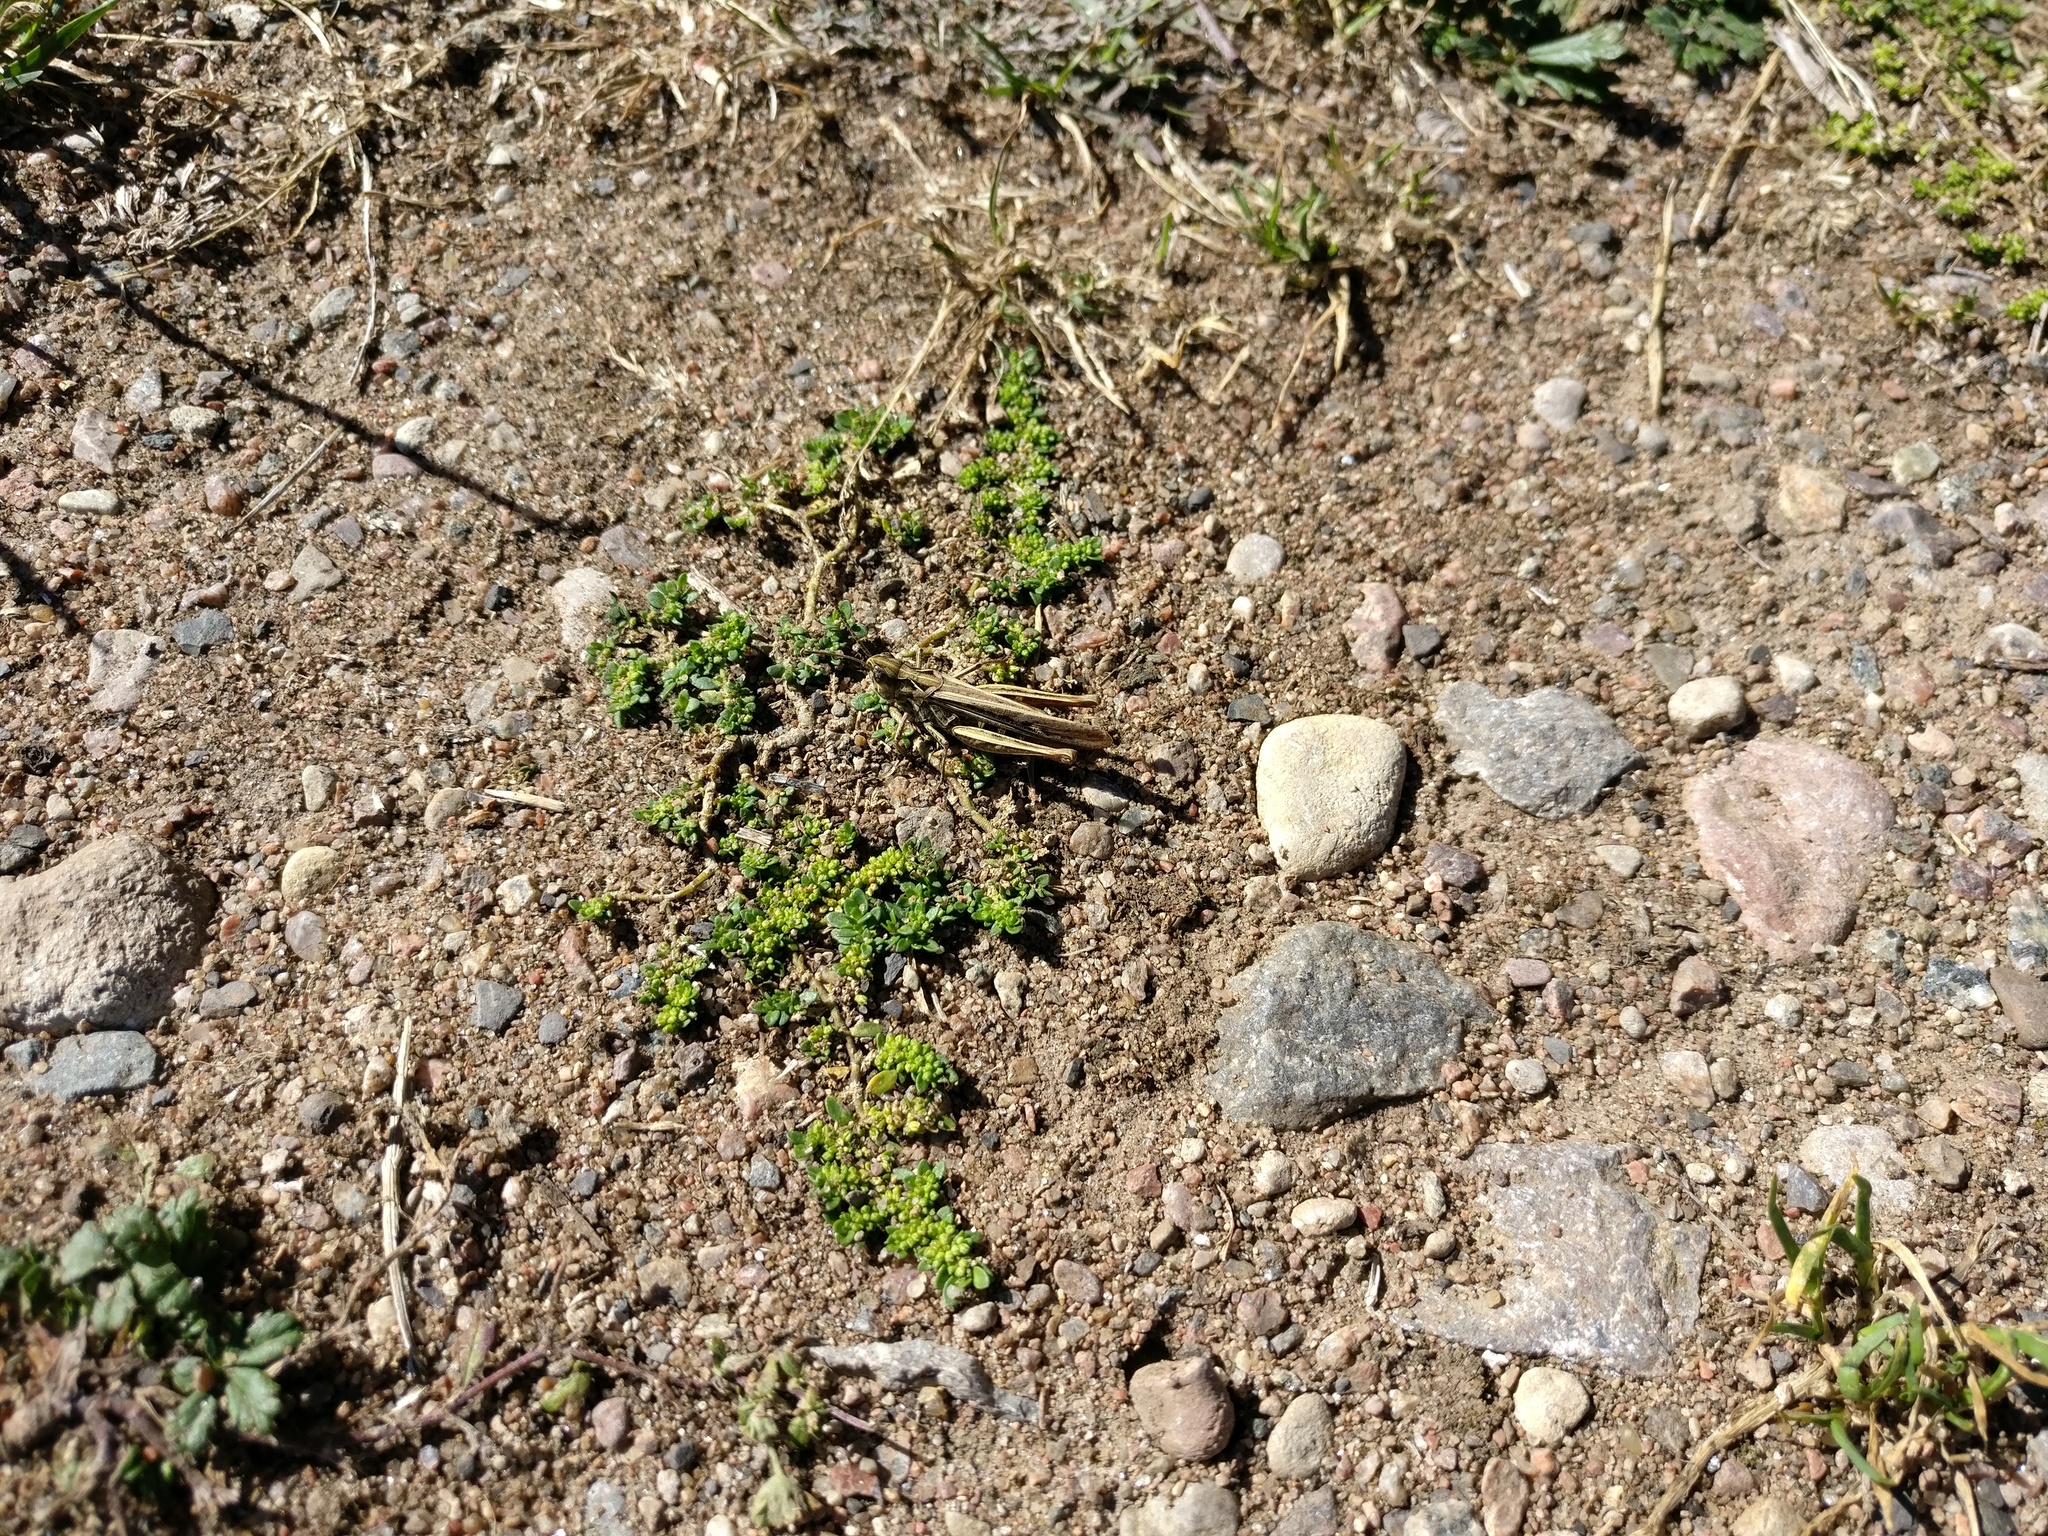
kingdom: Animalia
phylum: Arthropoda
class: Insecta
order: Orthoptera
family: Acrididae
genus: Chorthippus
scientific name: Chorthippus brunneus
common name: Field grasshopper
